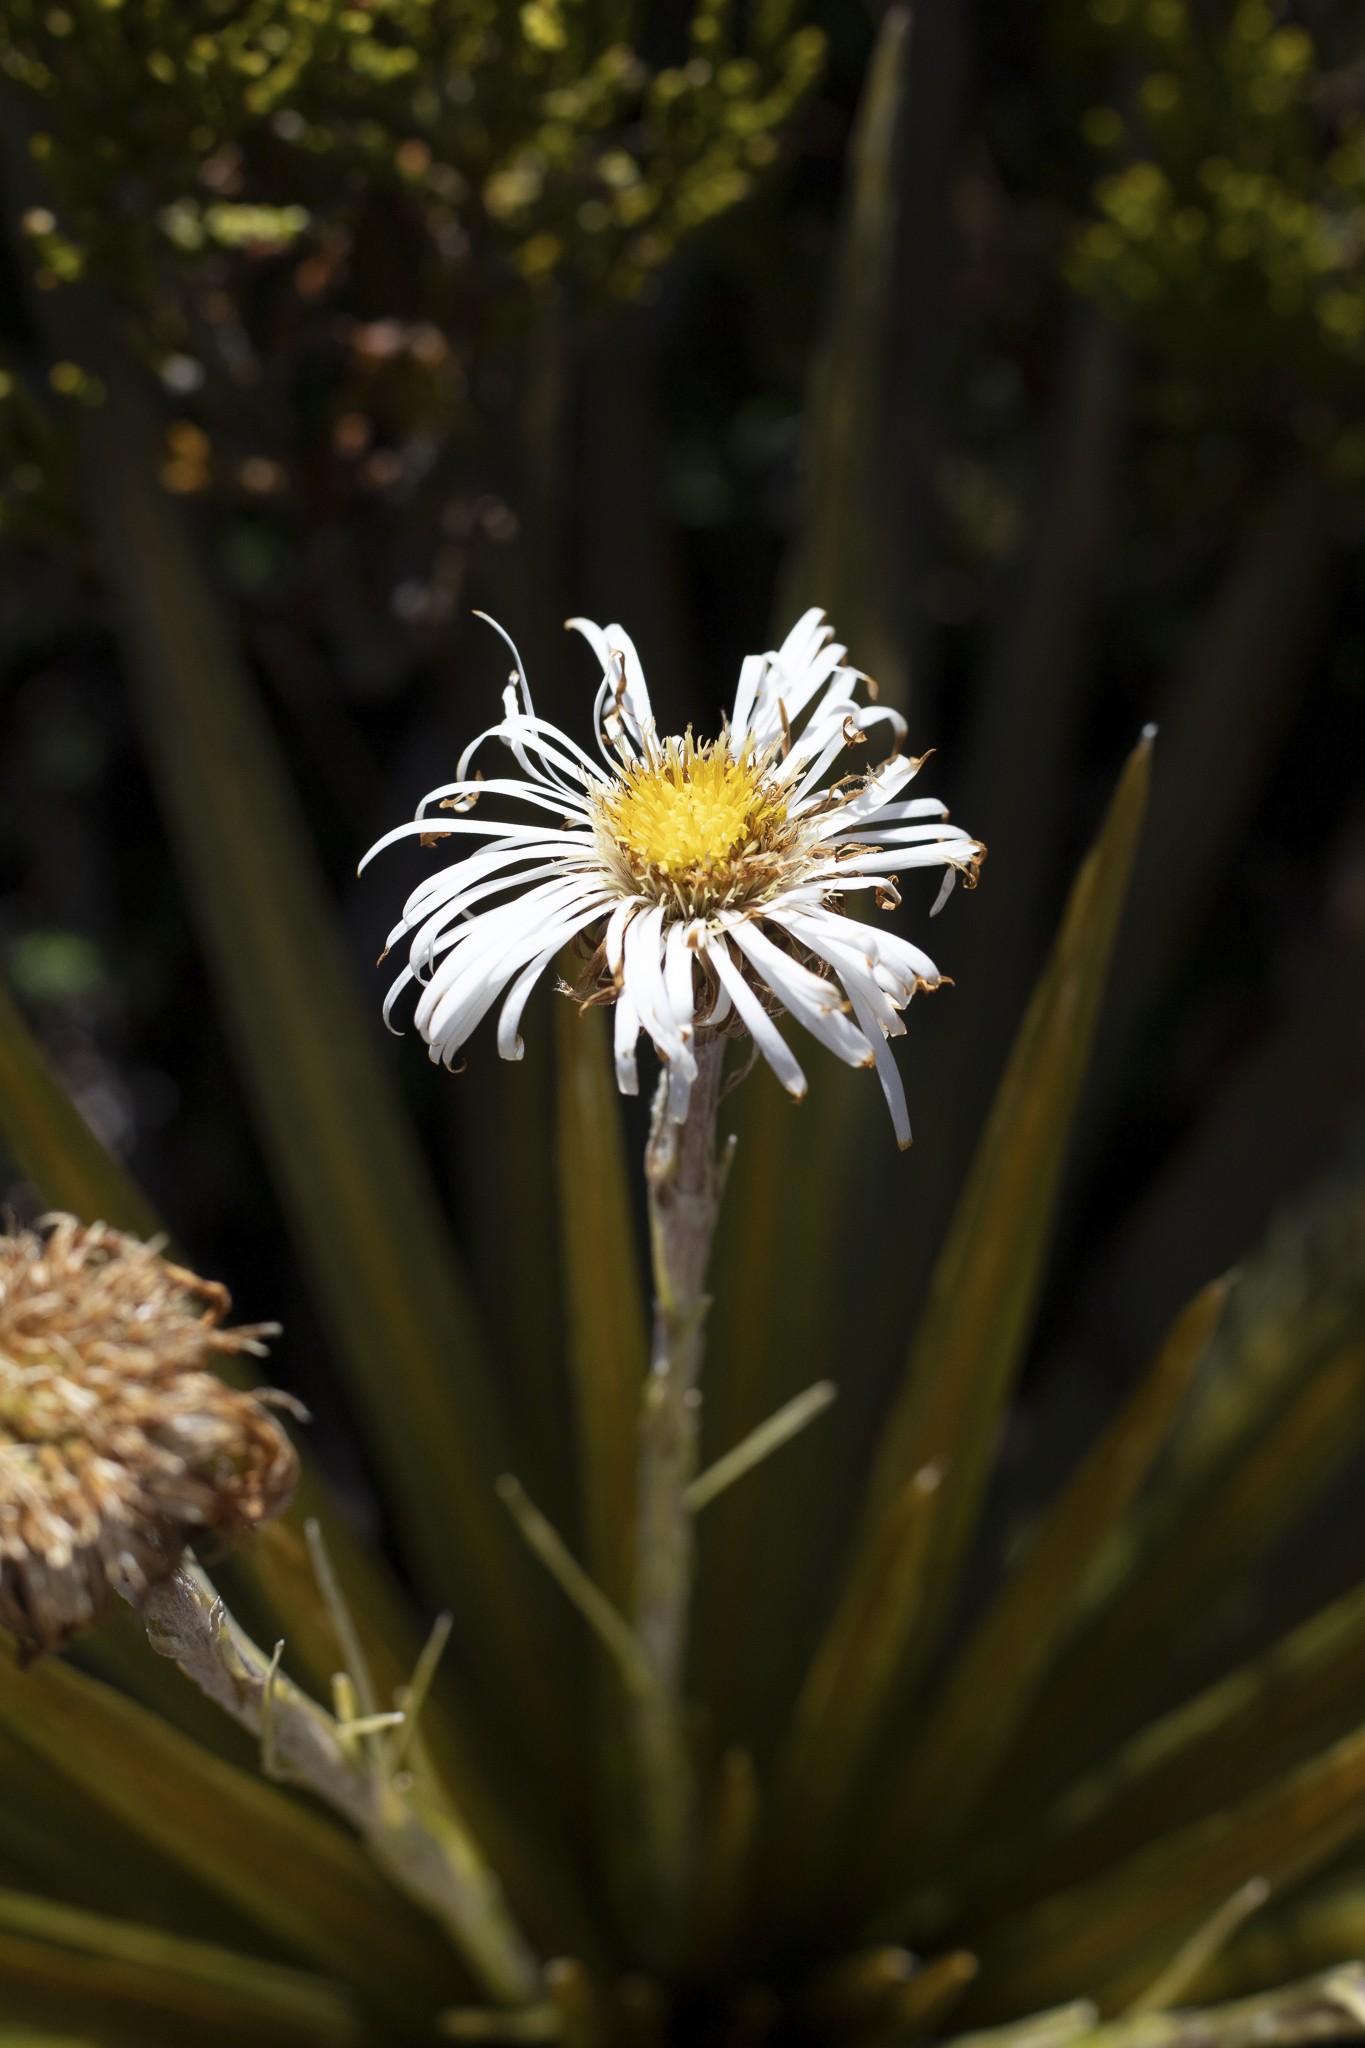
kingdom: Plantae
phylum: Tracheophyta
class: Magnoliopsida
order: Asterales
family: Asteraceae
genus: Celmisia
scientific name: Celmisia armstrongii
